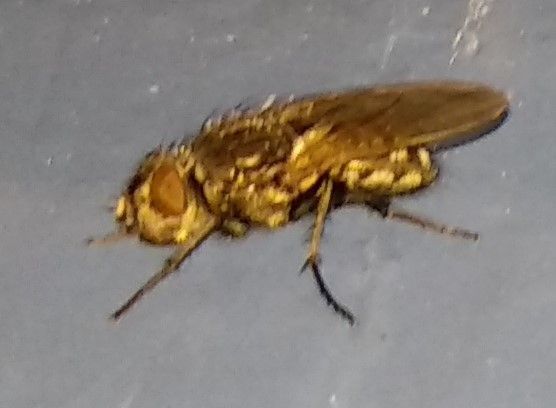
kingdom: Animalia
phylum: Arthropoda
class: Insecta
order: Diptera
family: Polleniidae
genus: Pollenia
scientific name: Pollenia
